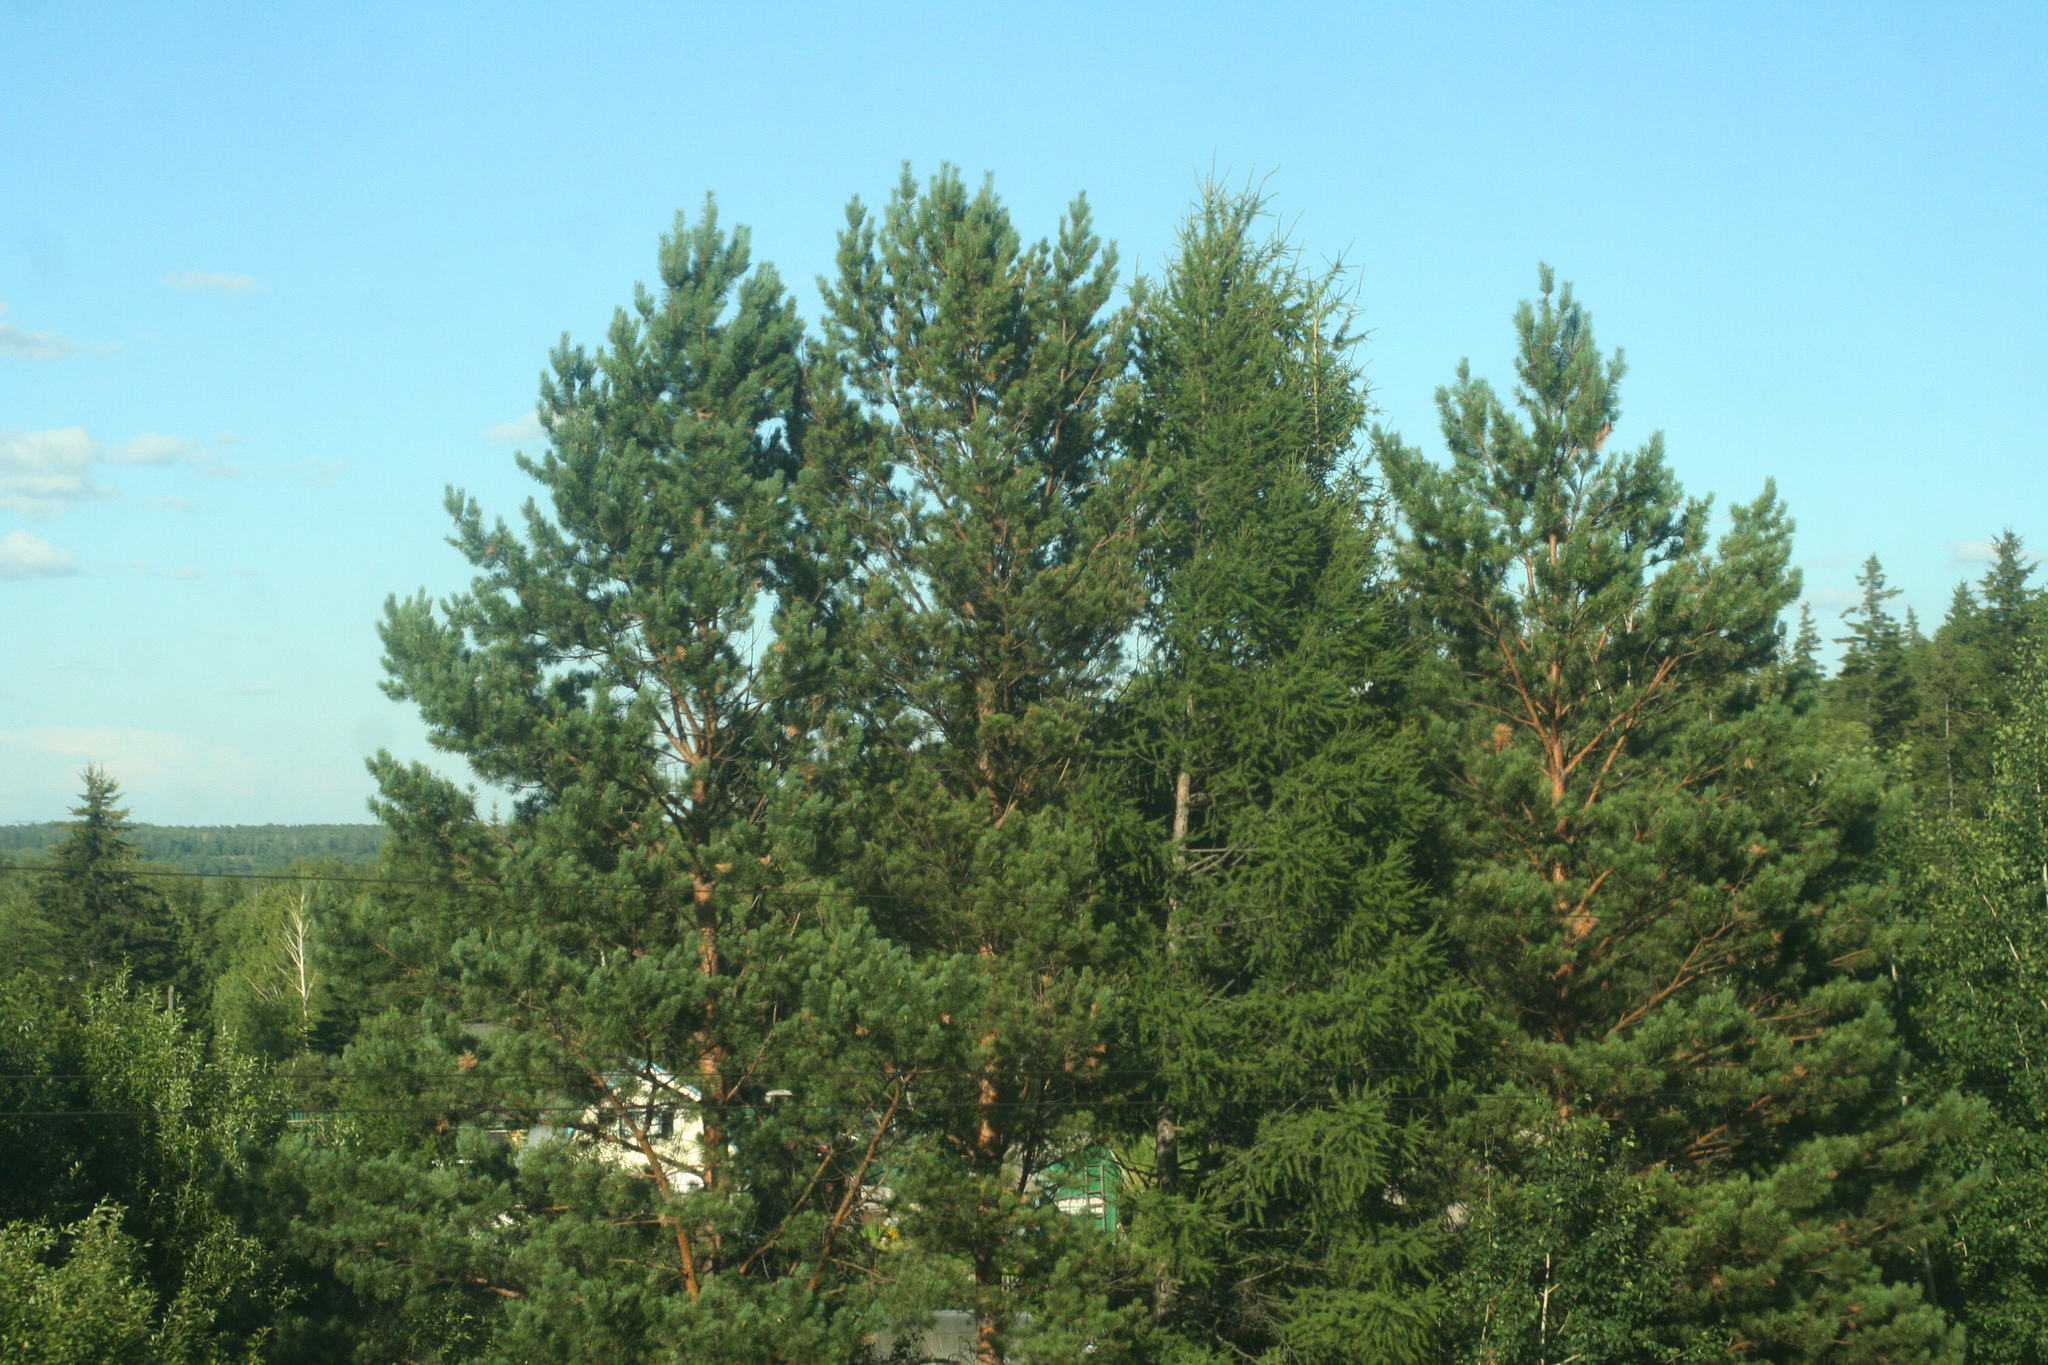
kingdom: Plantae
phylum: Tracheophyta
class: Pinopsida
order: Pinales
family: Pinaceae
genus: Pinus
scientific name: Pinus sylvestris
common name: Scots pine
